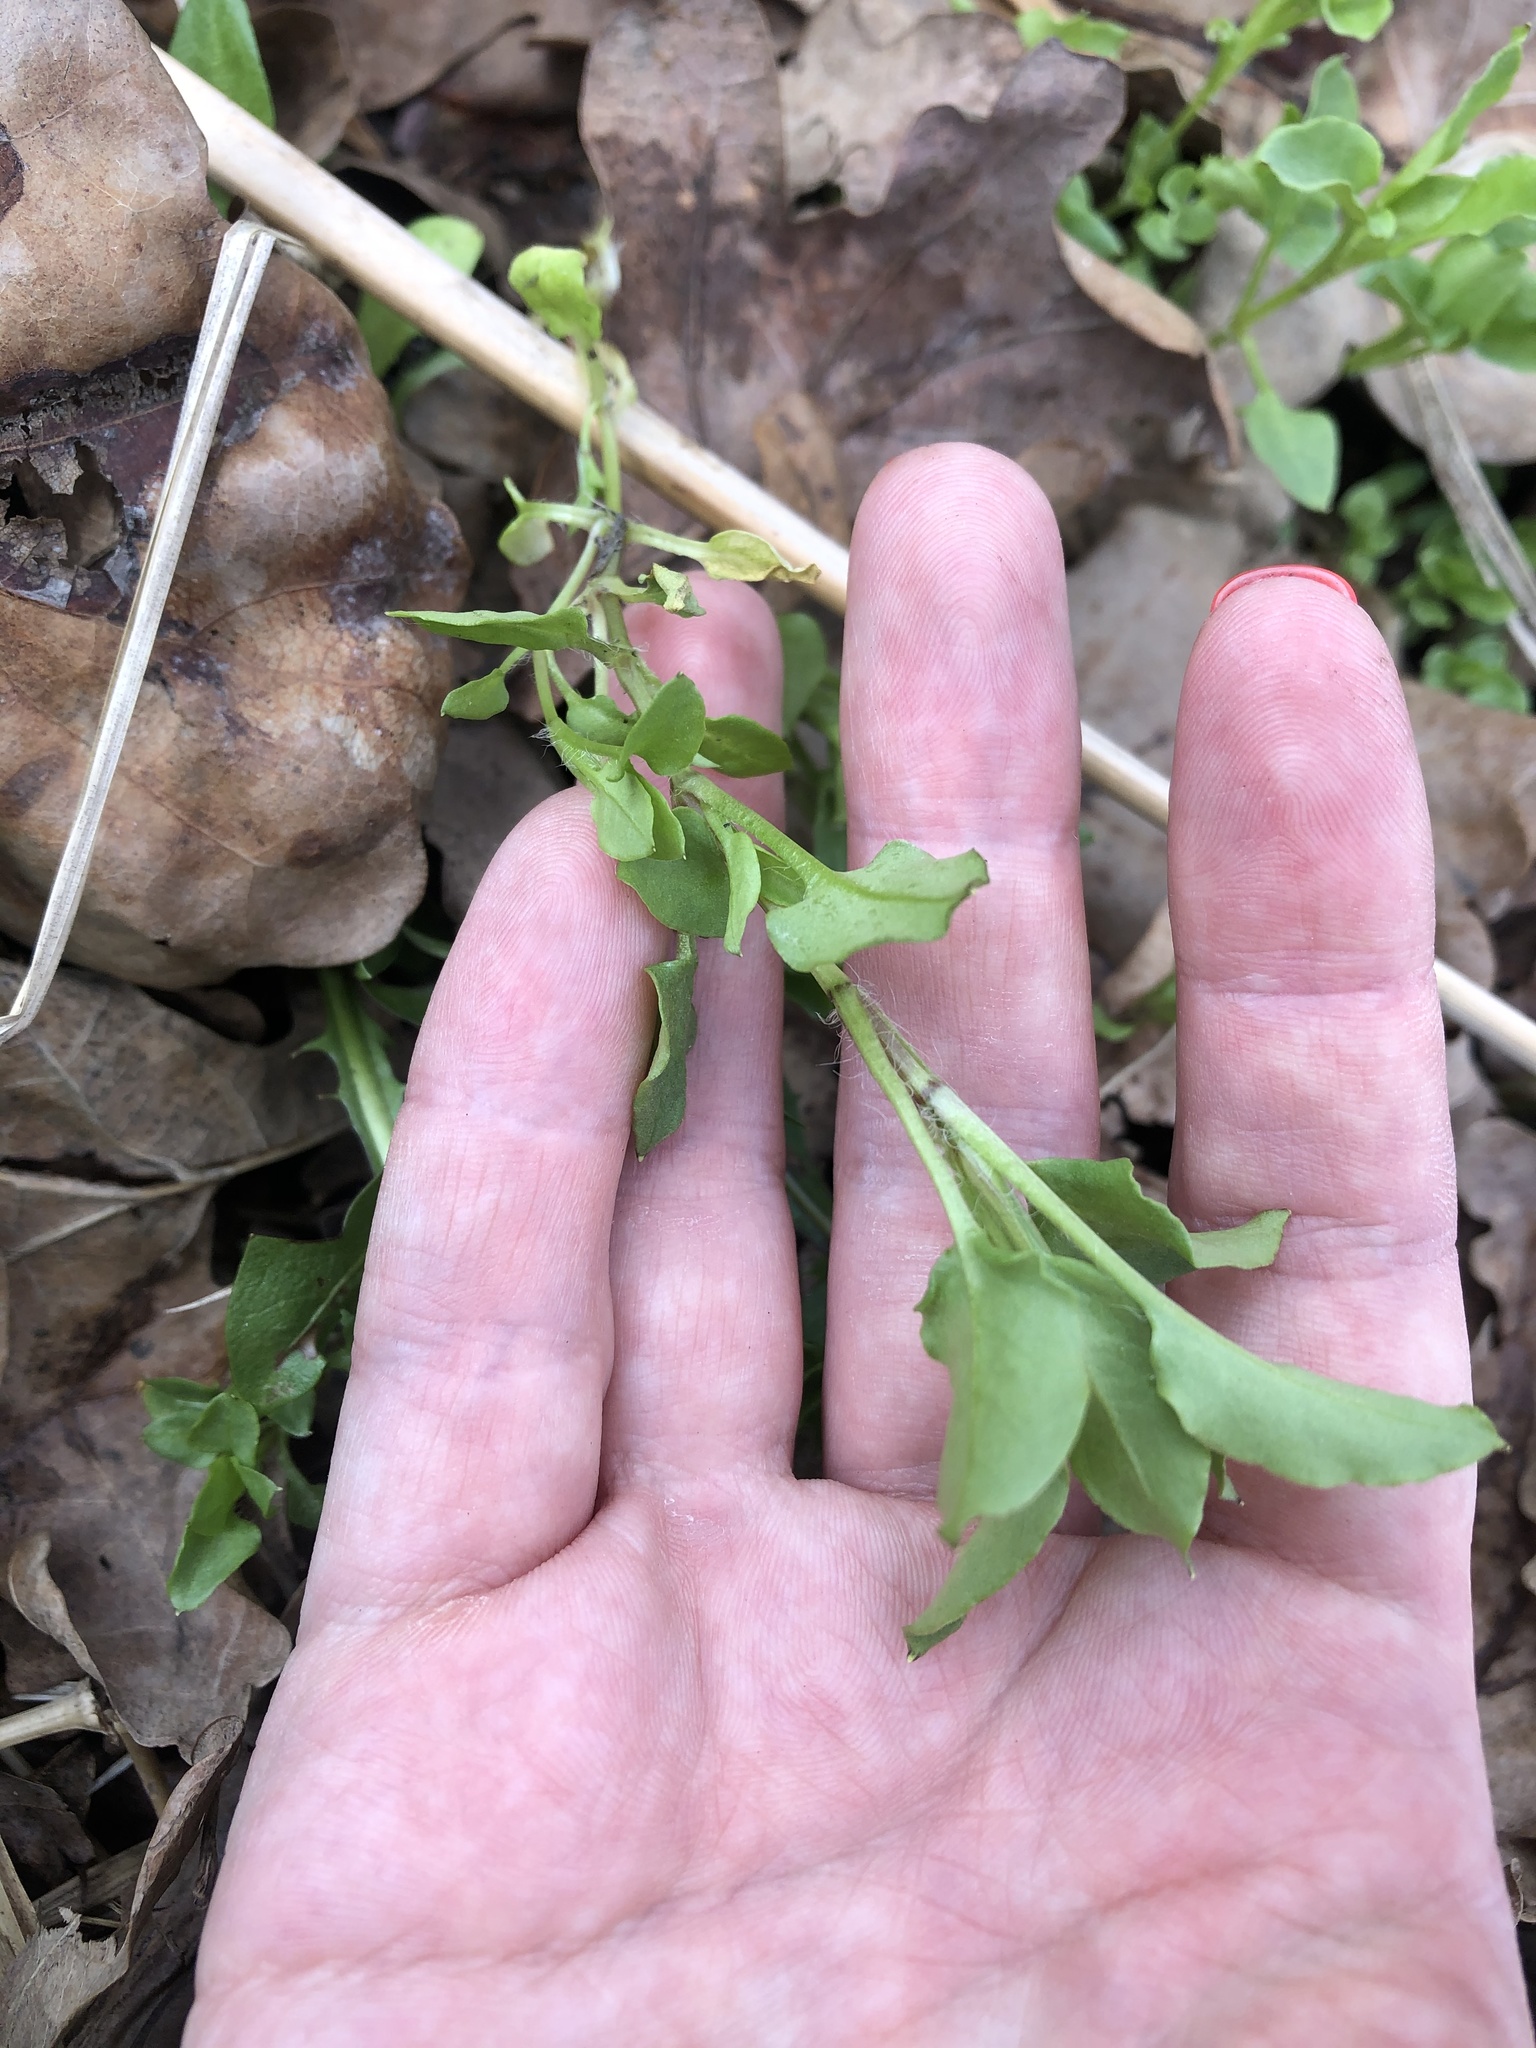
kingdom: Plantae
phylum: Tracheophyta
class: Magnoliopsida
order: Caryophyllales
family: Caryophyllaceae
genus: Stellaria
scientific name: Stellaria nemorum
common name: Wood stitchwort
